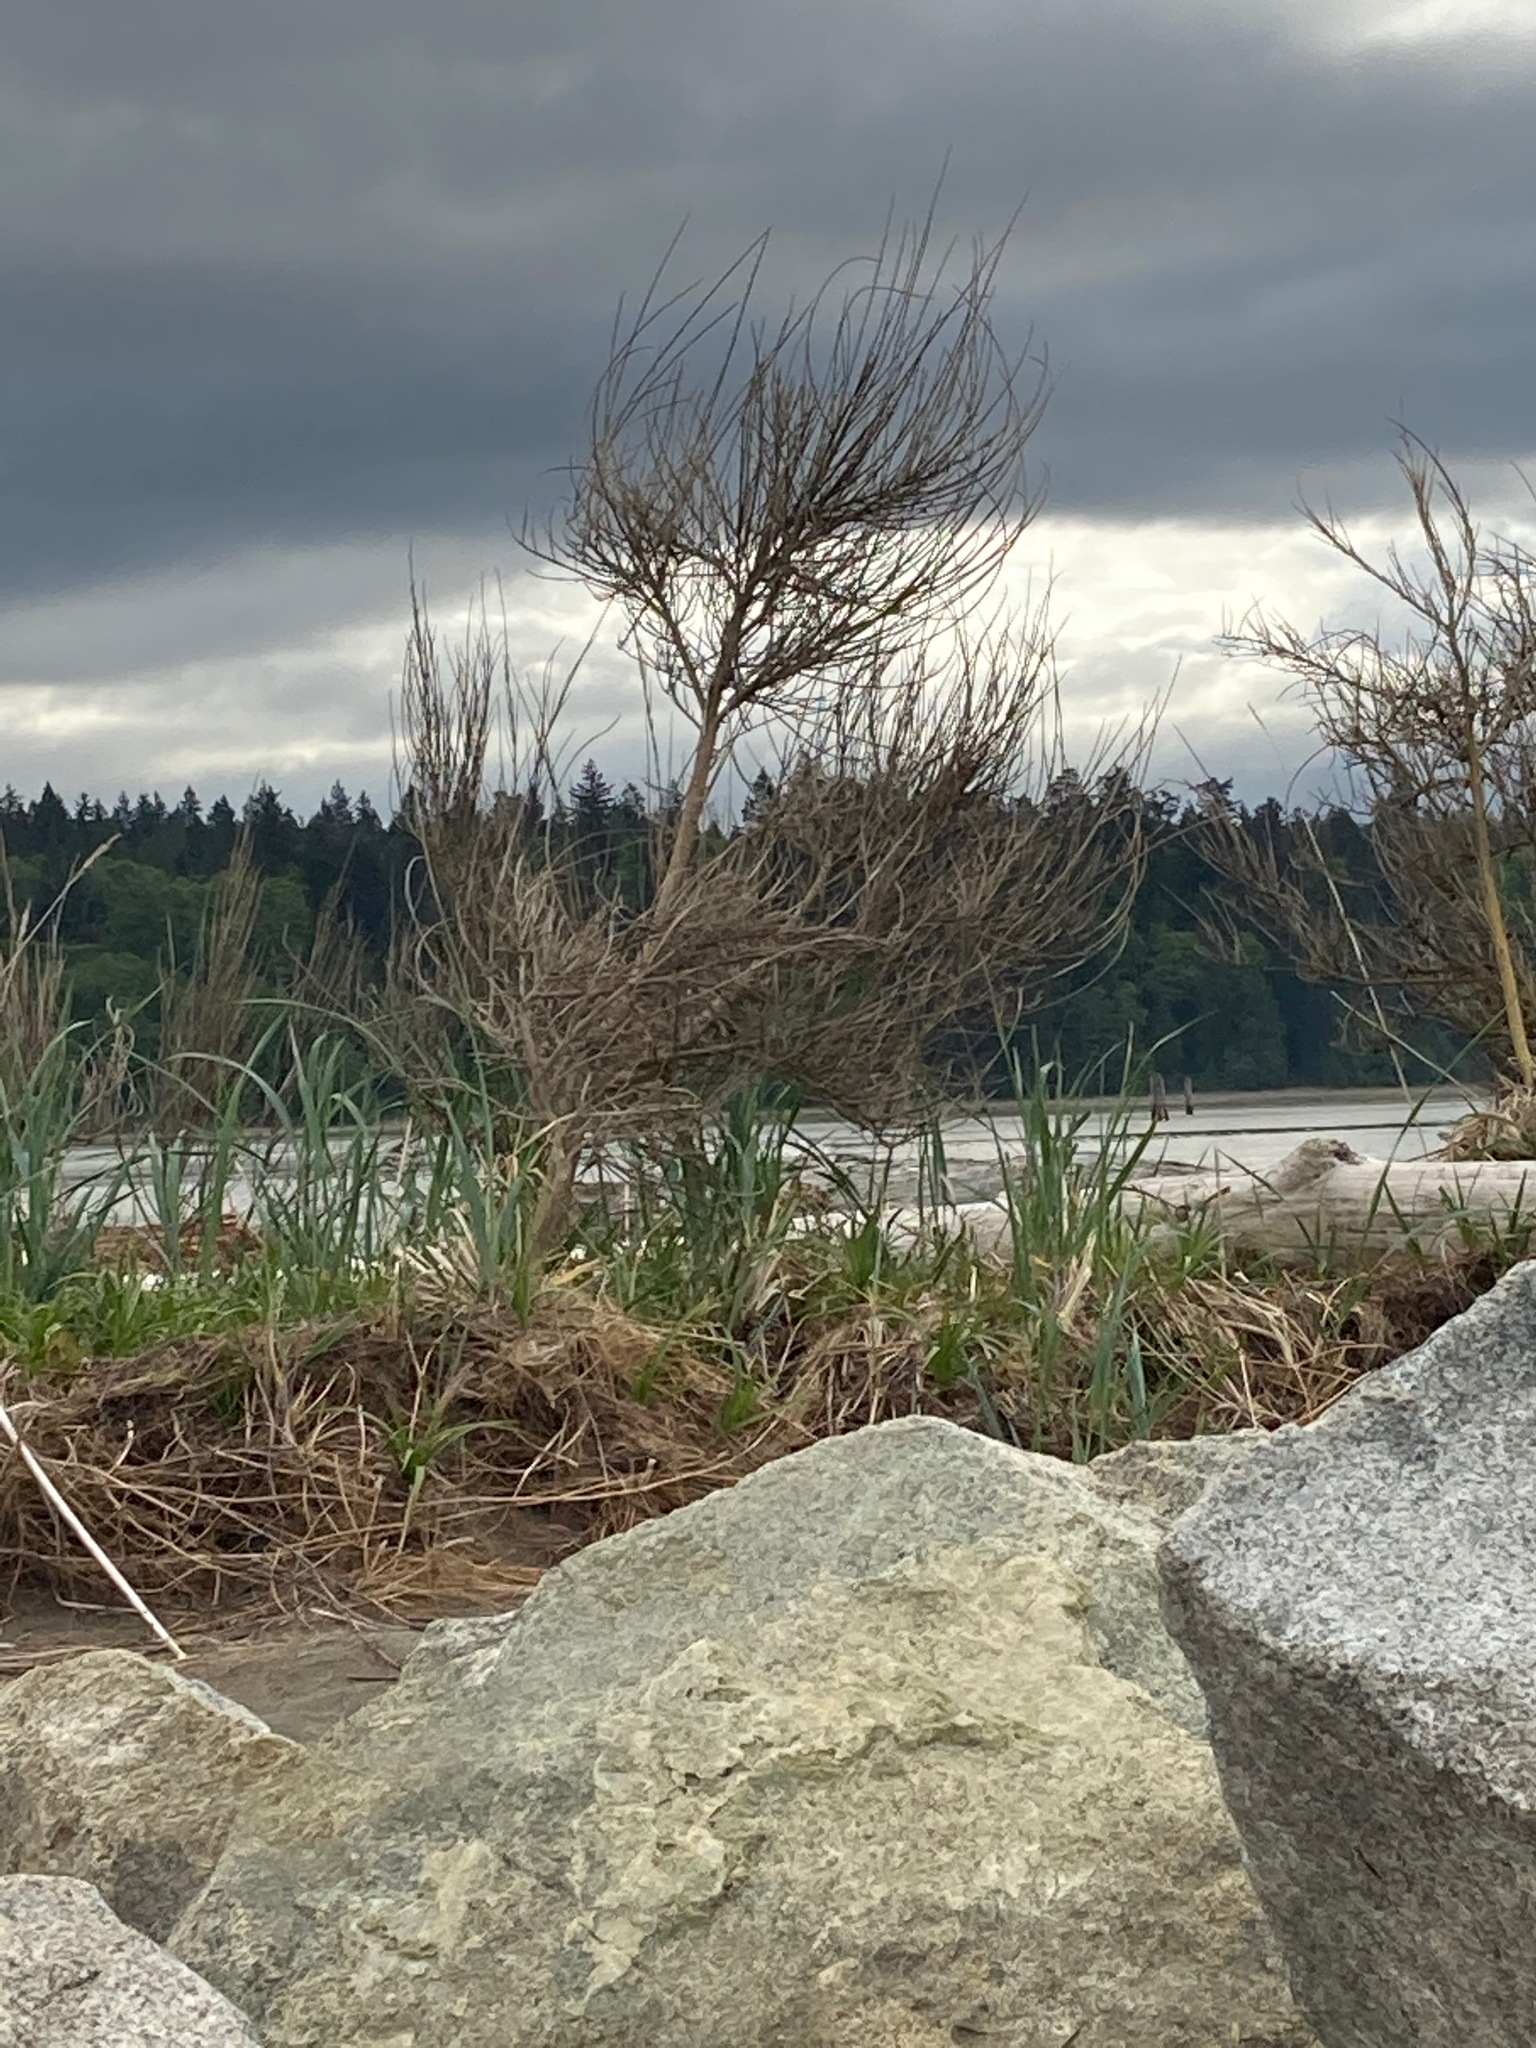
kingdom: Plantae
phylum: Tracheophyta
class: Magnoliopsida
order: Fabales
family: Fabaceae
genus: Cytisus
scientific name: Cytisus scoparius
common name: Scotch broom
